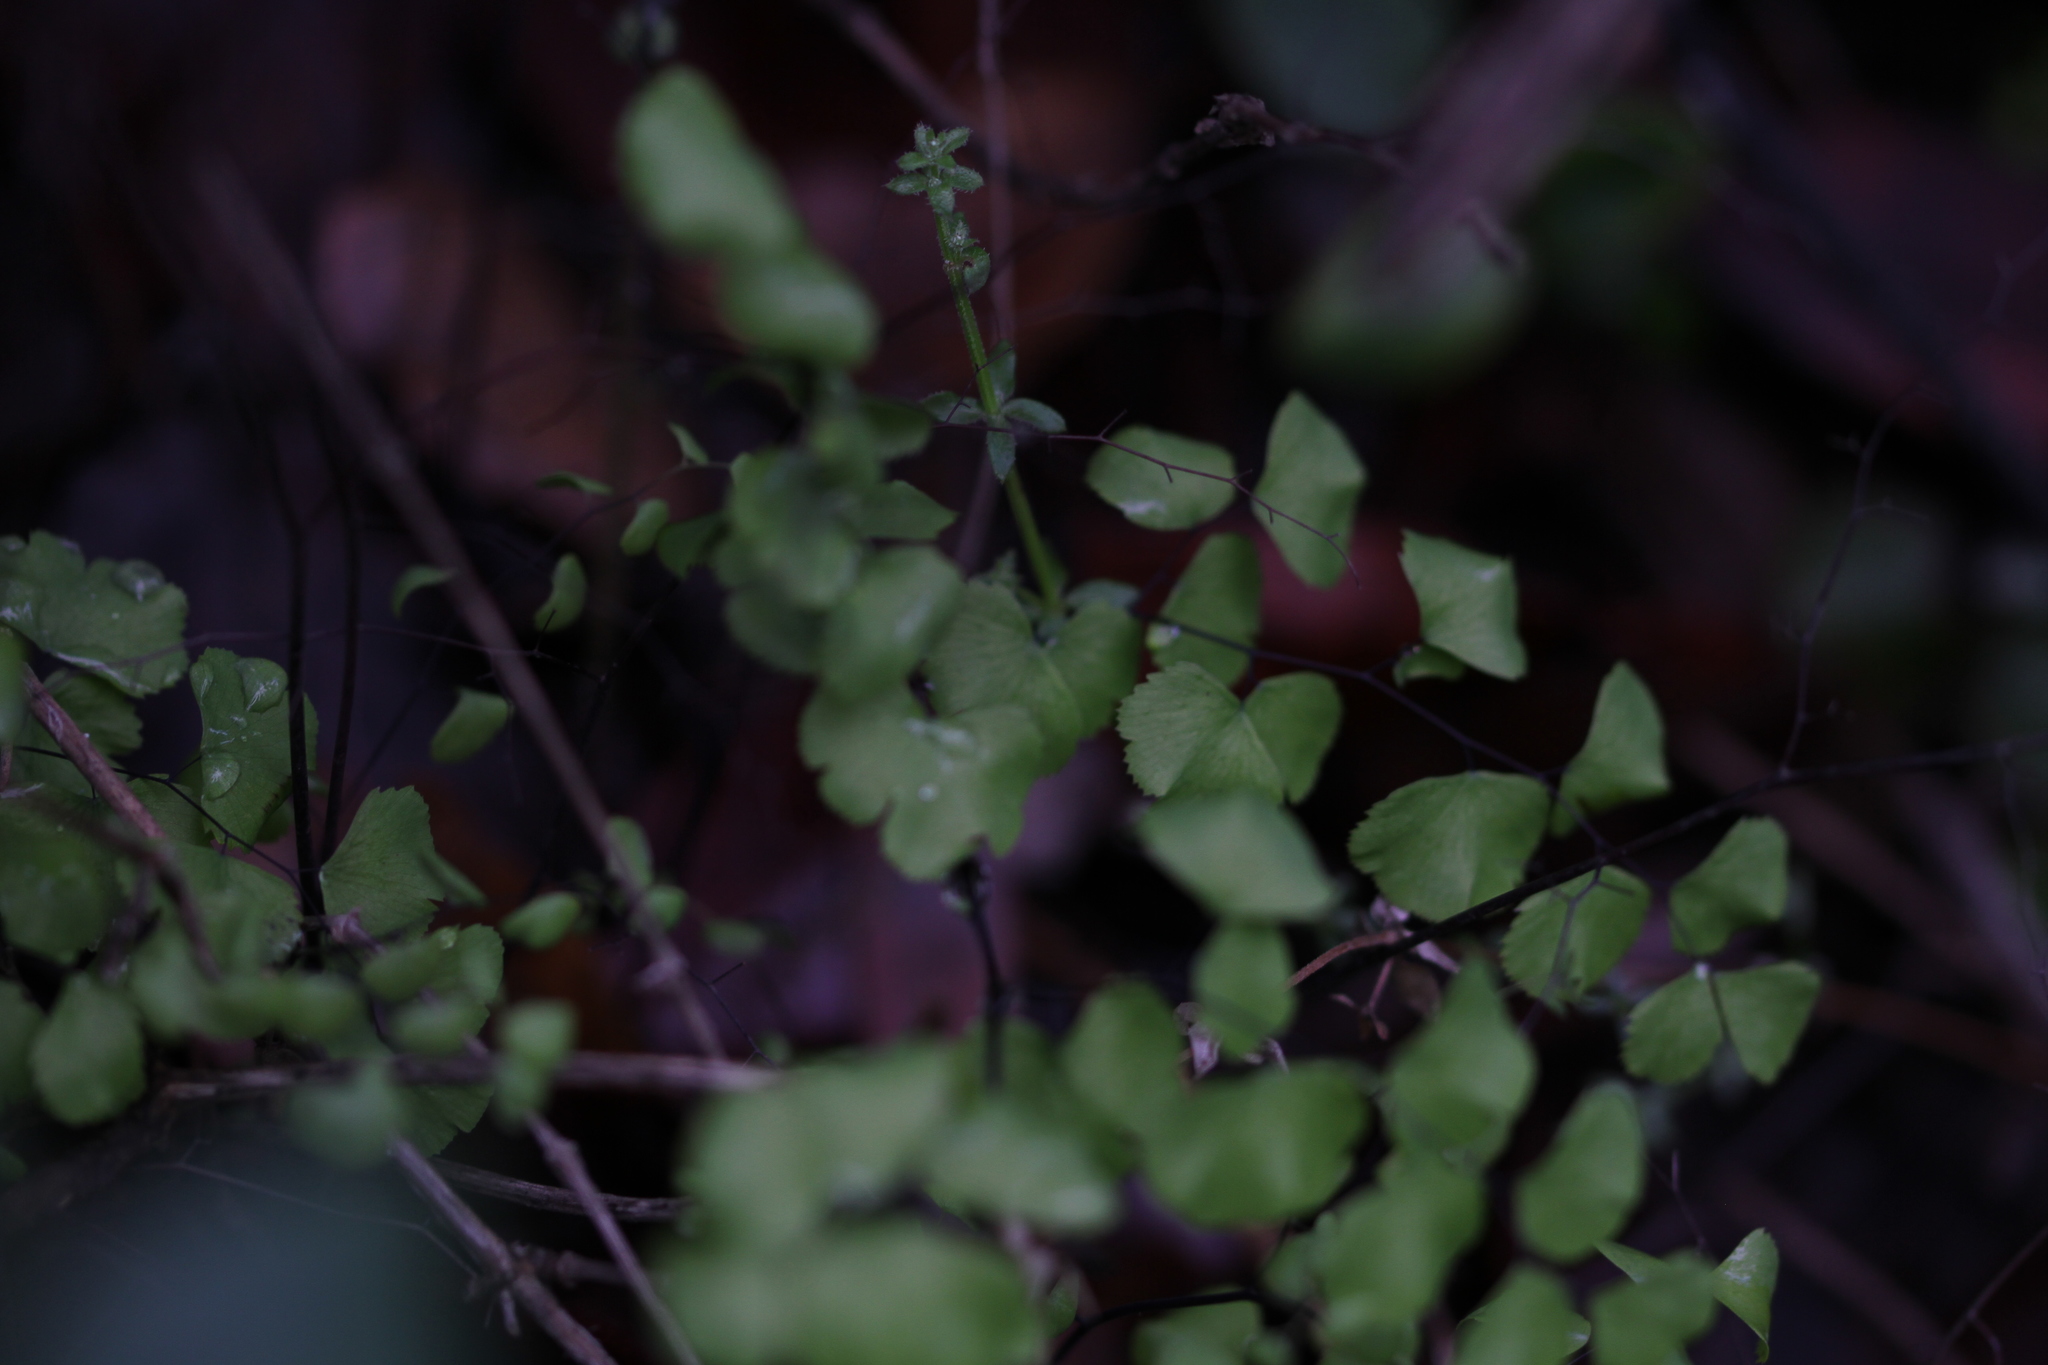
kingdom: Plantae
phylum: Tracheophyta
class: Polypodiopsida
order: Polypodiales
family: Pteridaceae
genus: Adiantum
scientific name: Adiantum jordanii
